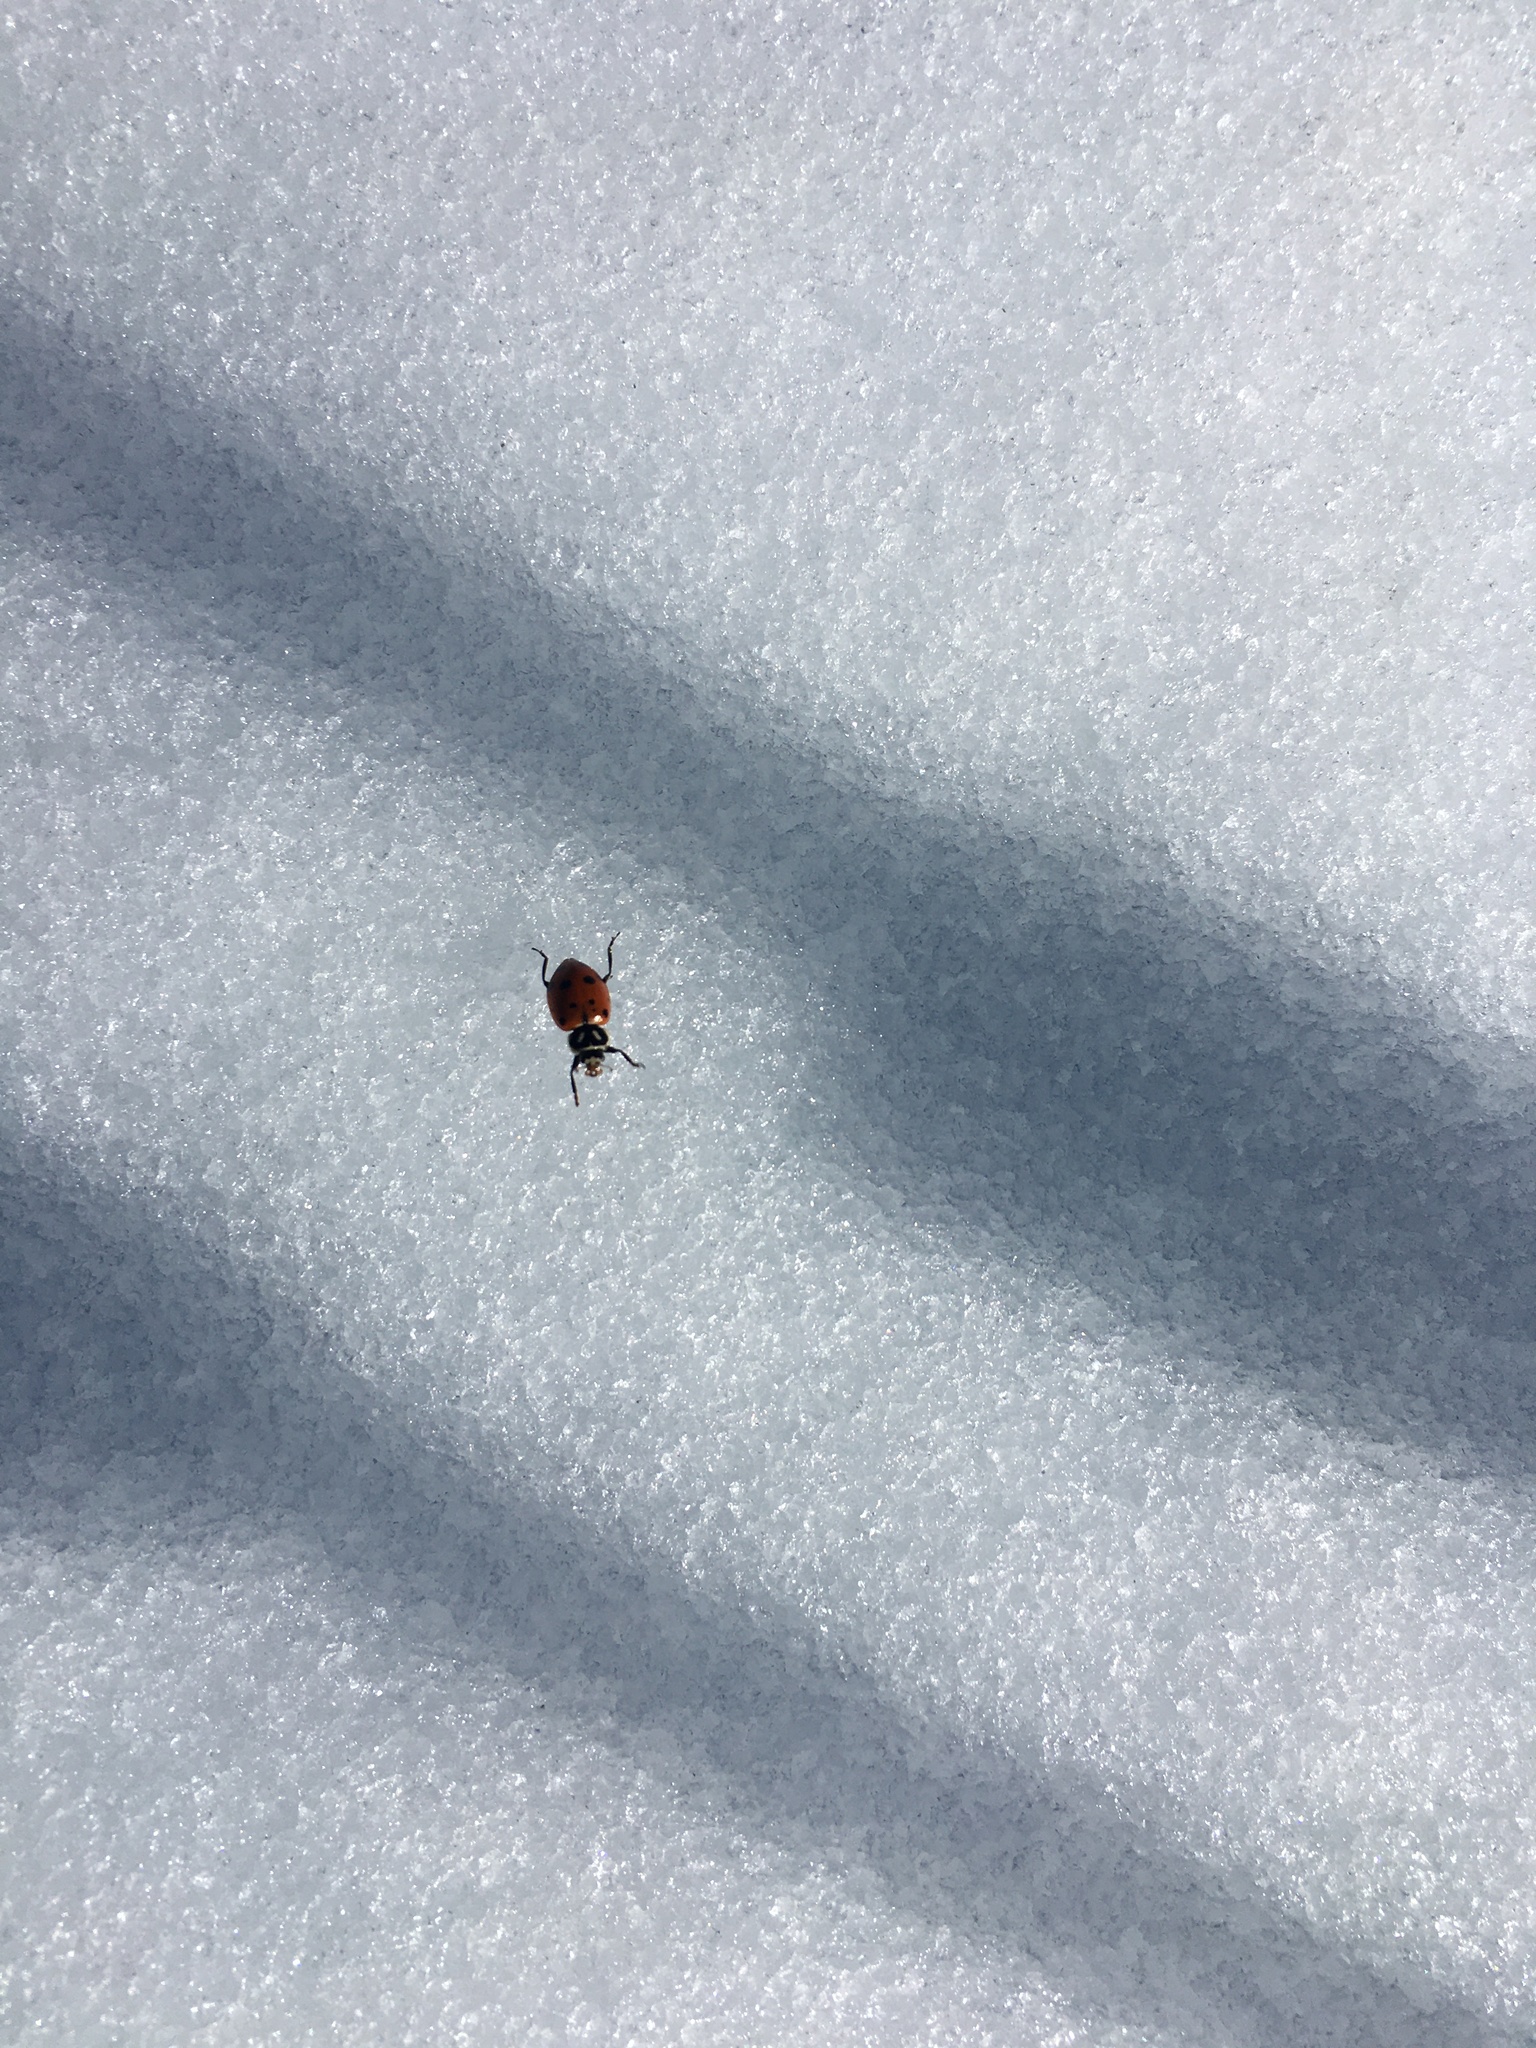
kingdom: Animalia
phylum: Arthropoda
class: Insecta
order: Coleoptera
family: Coccinellidae
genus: Hippodamia
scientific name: Hippodamia convergens
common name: Convergent lady beetle
